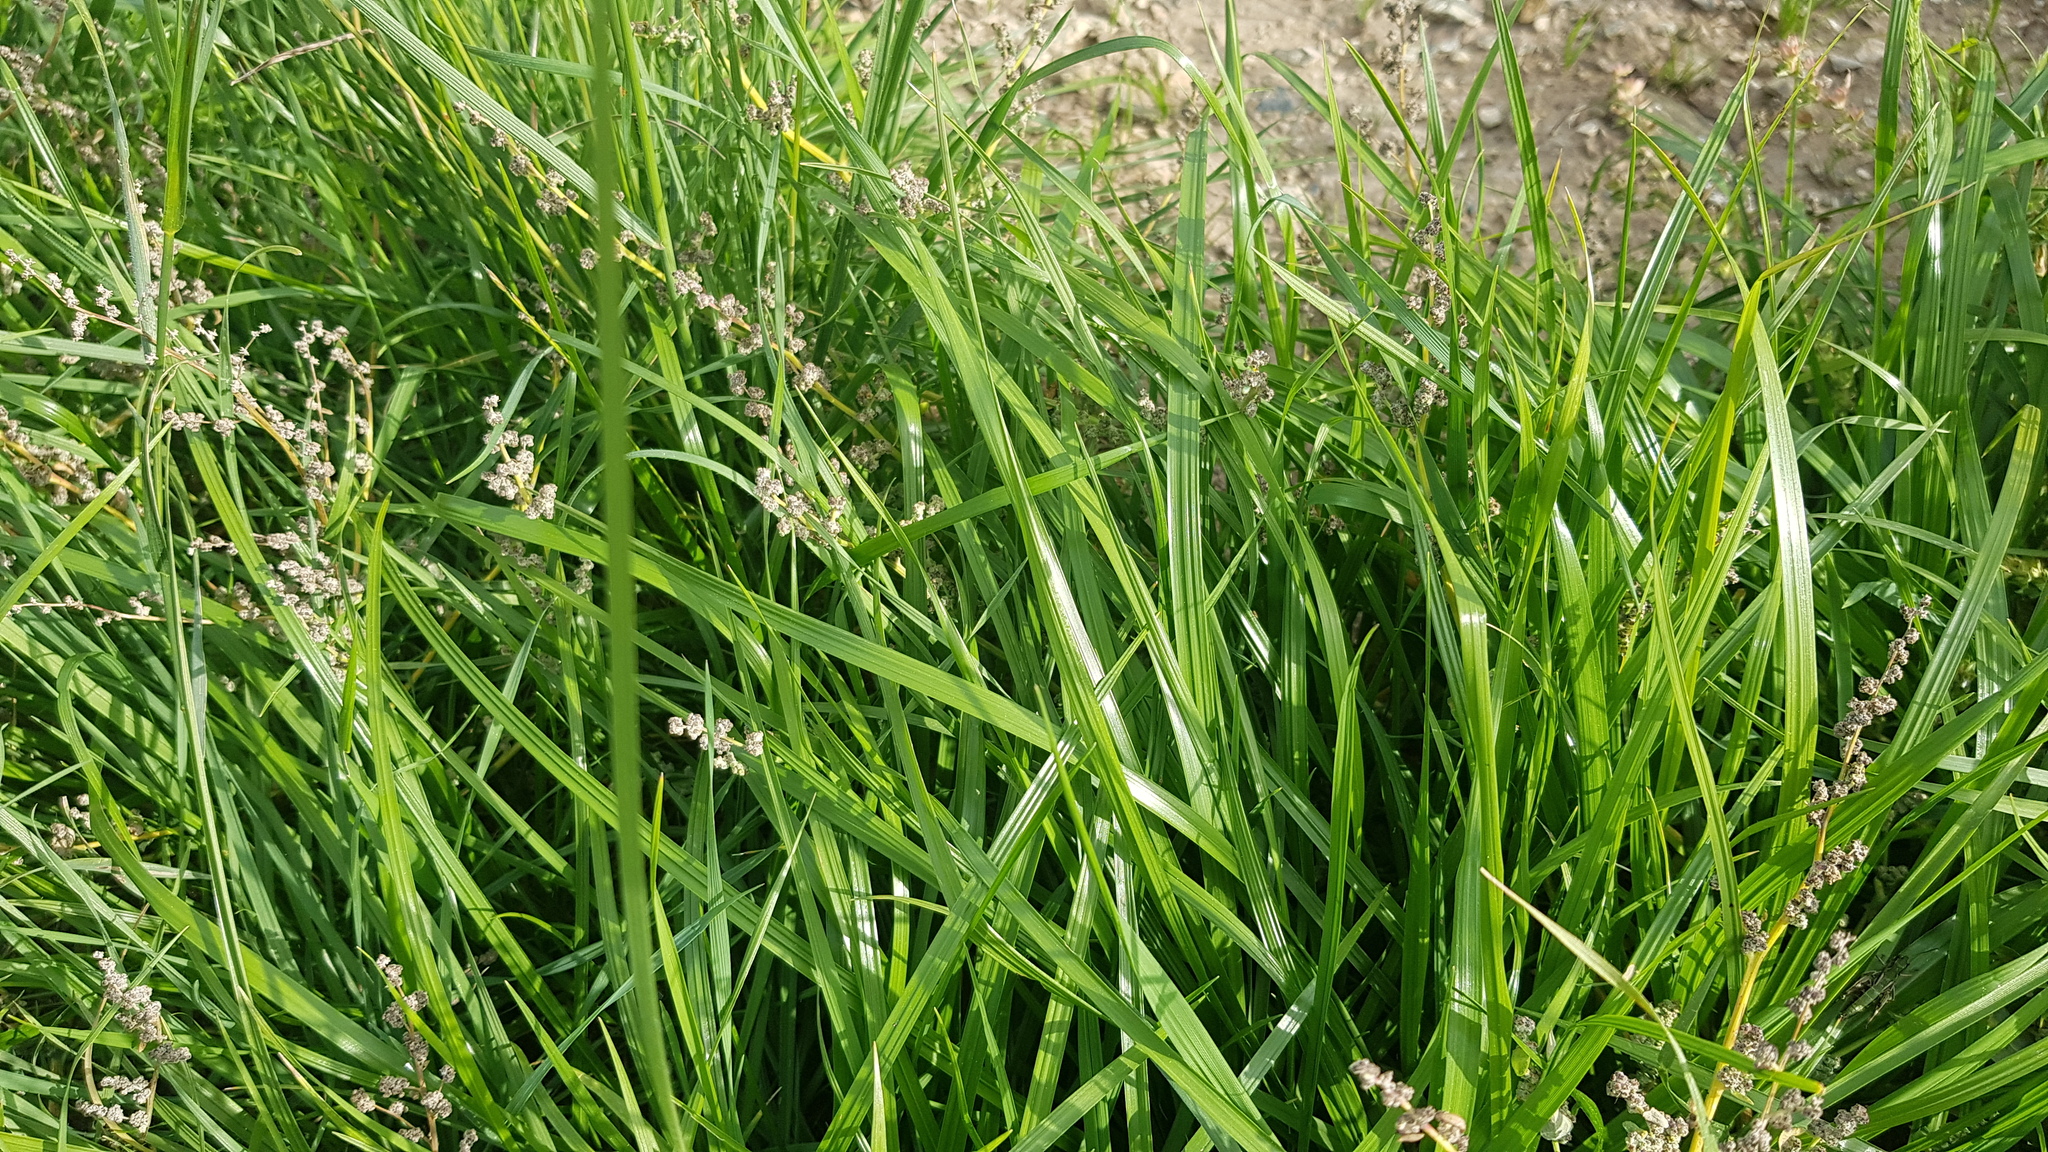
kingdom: Plantae
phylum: Tracheophyta
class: Liliopsida
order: Poales
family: Poaceae
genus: Beckmannia
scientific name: Beckmannia syzigachne
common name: American slough-grass
